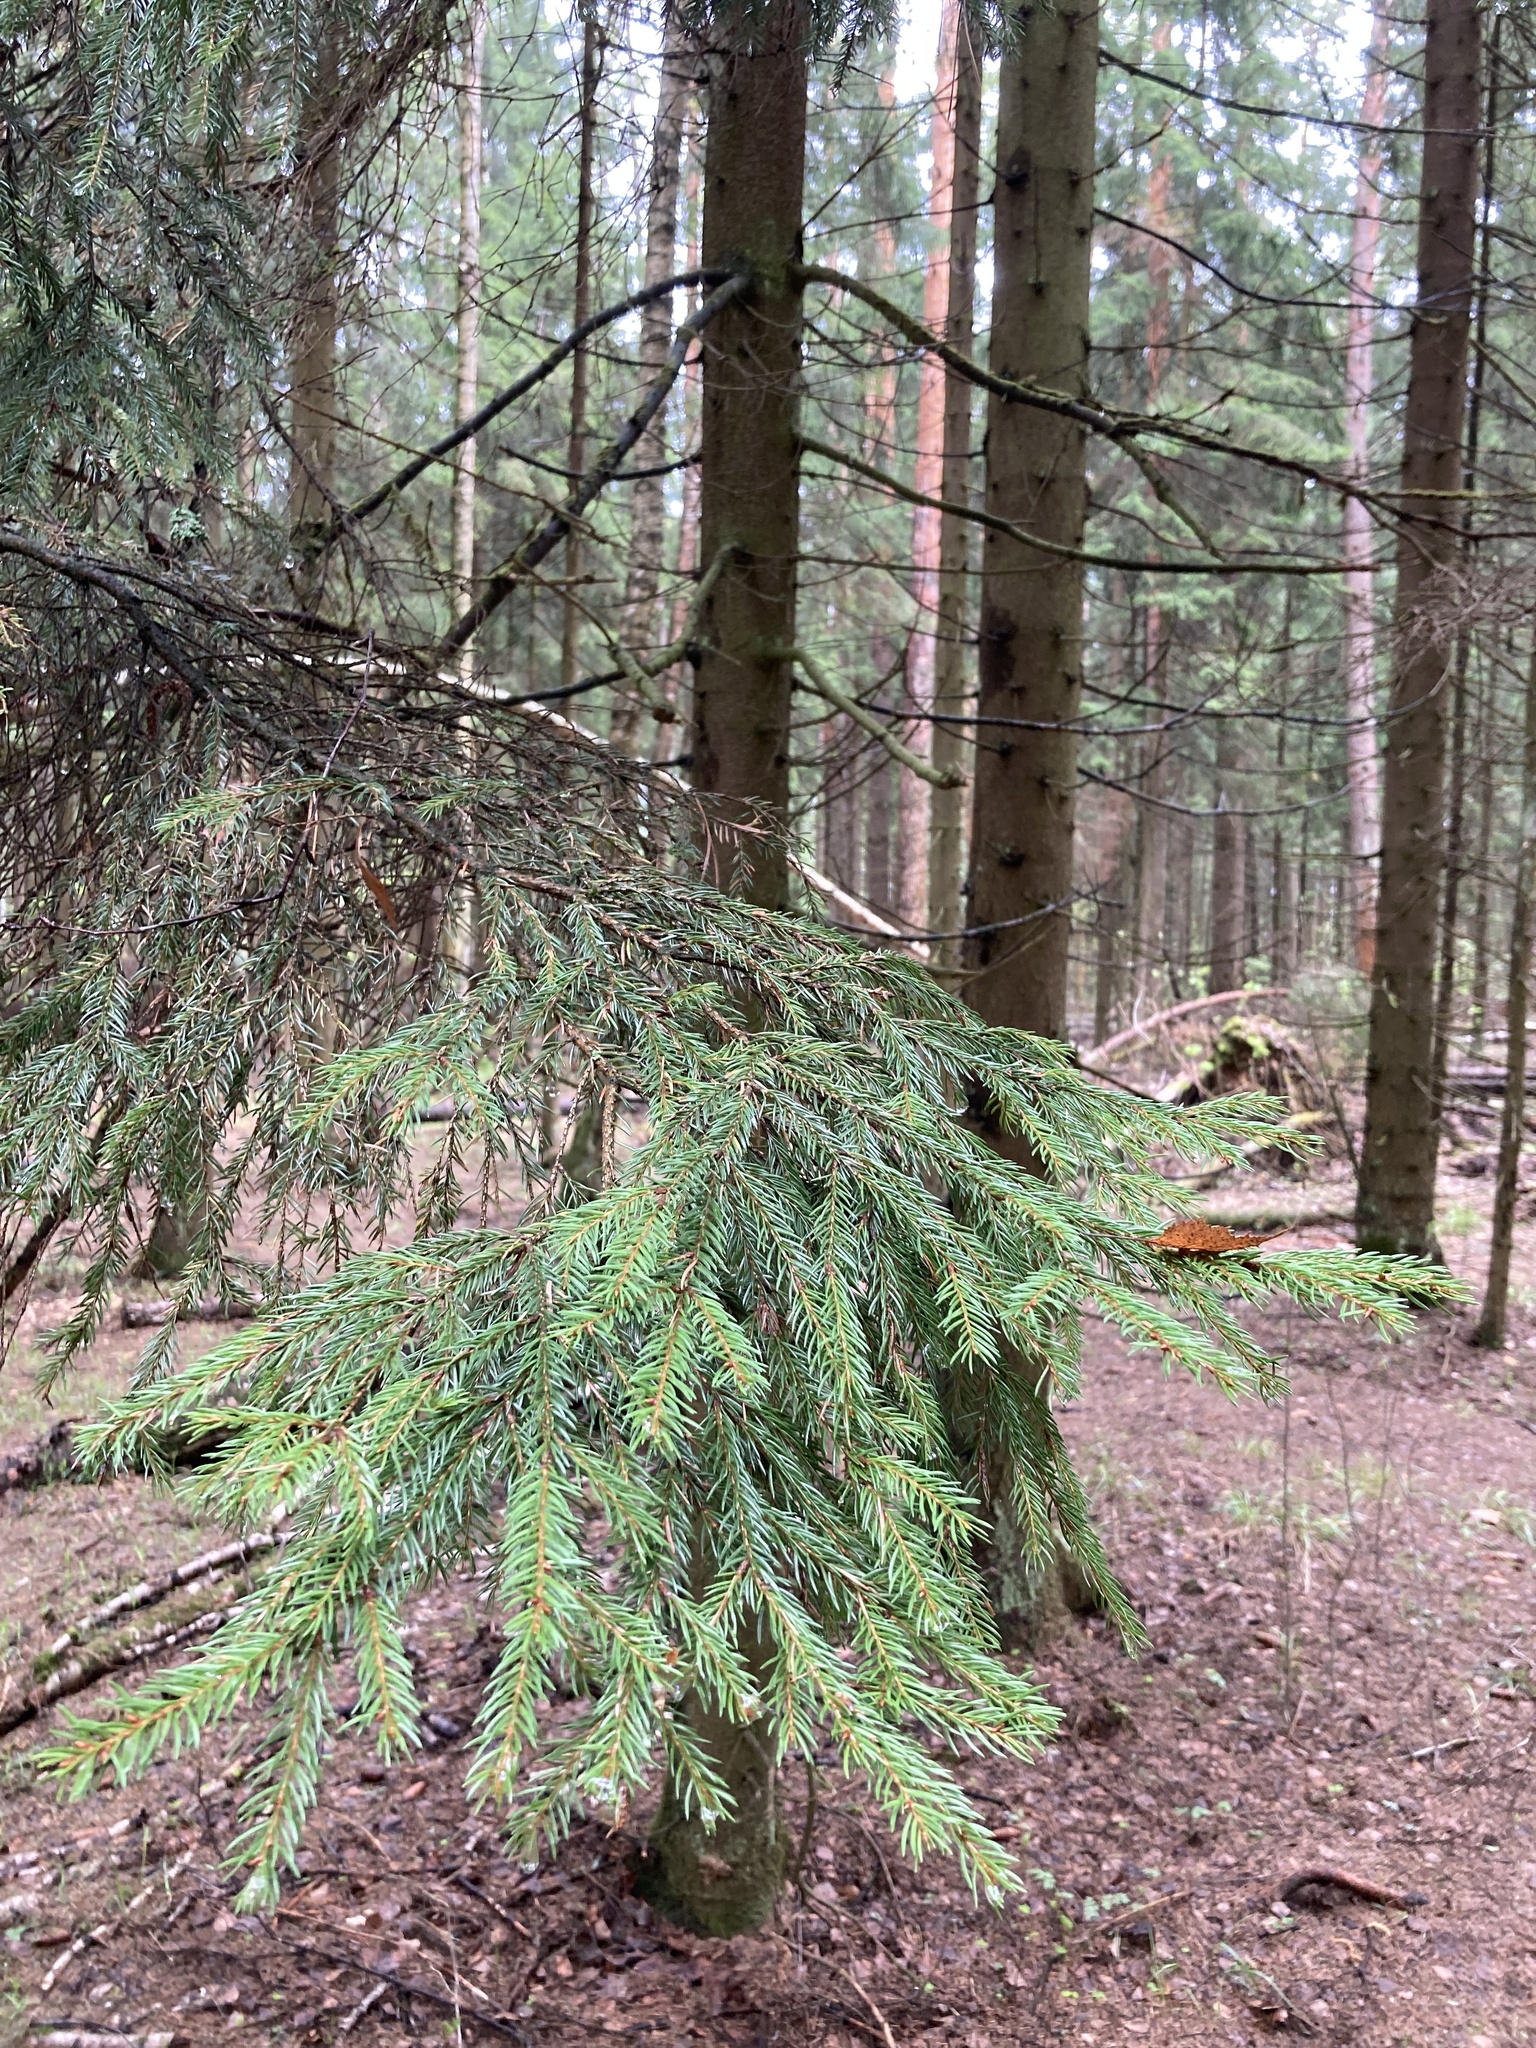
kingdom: Plantae
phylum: Tracheophyta
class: Pinopsida
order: Pinales
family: Pinaceae
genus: Picea
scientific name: Picea abies
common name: Norway spruce
